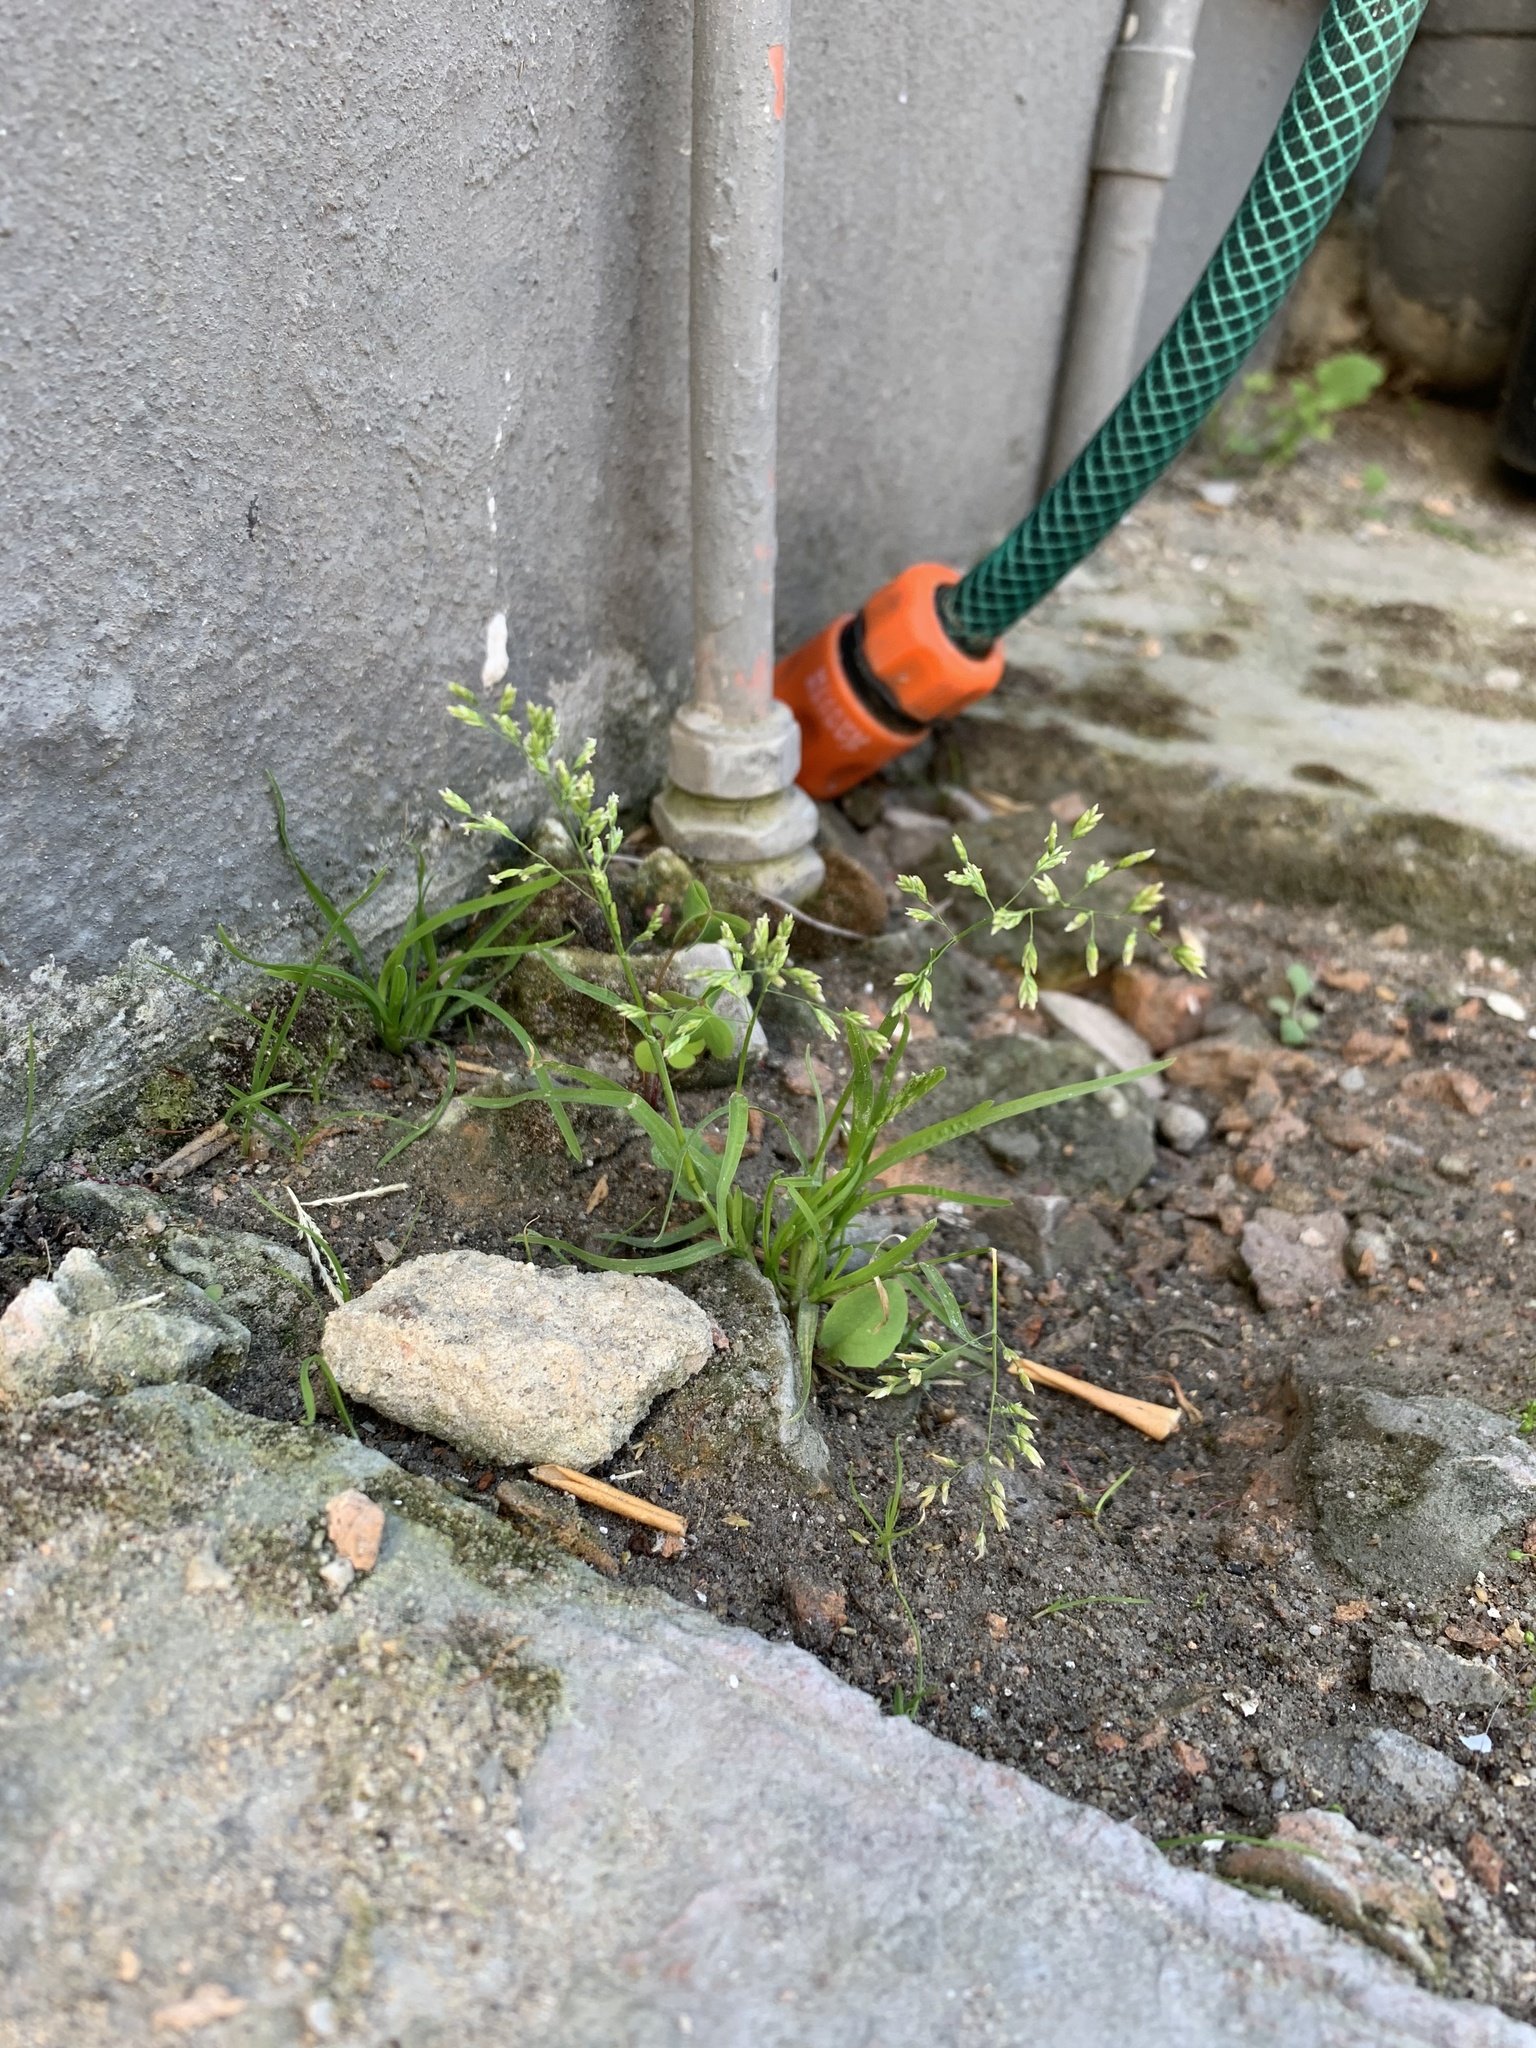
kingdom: Plantae
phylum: Tracheophyta
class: Liliopsida
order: Poales
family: Poaceae
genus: Poa
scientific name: Poa annua
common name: Annual bluegrass
